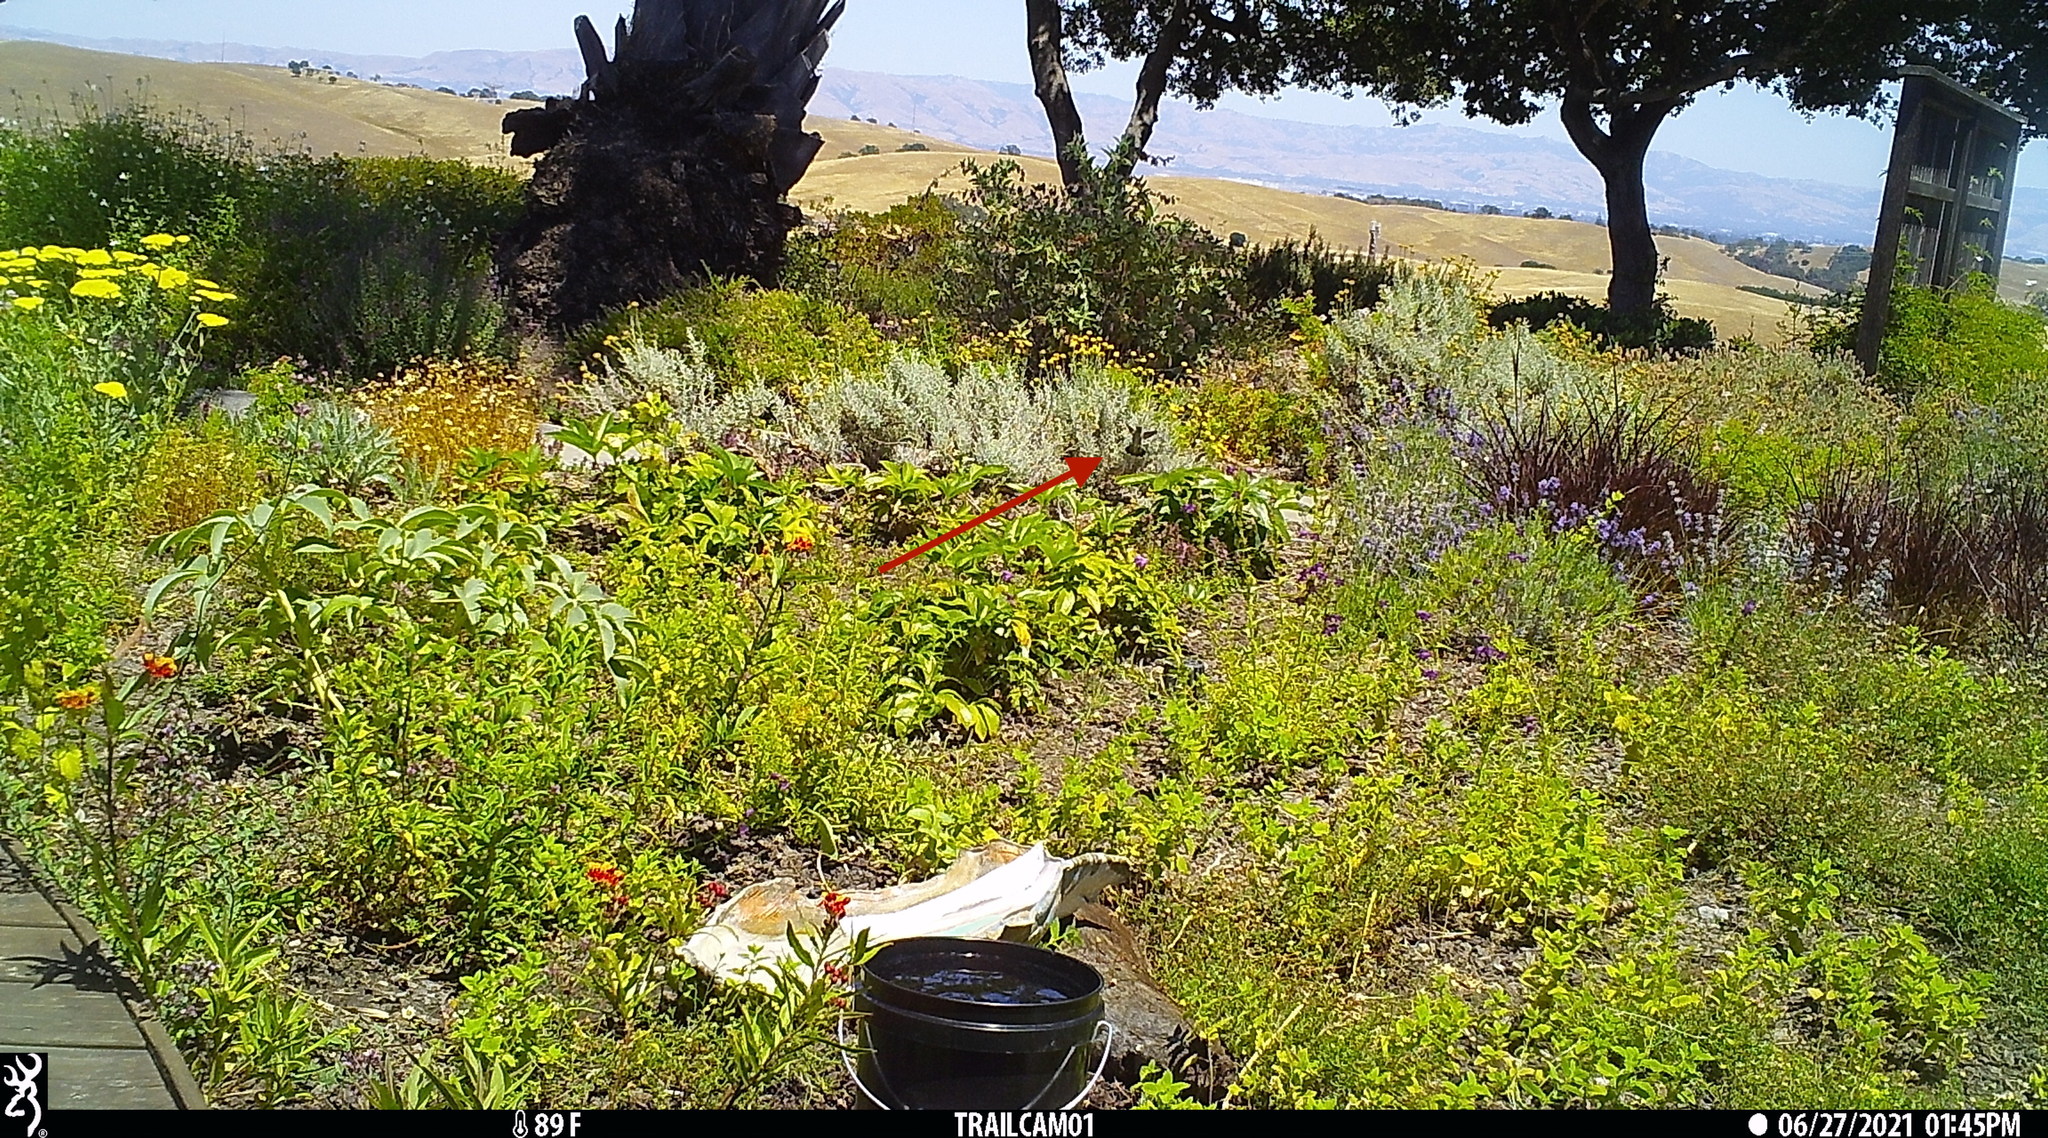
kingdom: Animalia
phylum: Chordata
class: Aves
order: Apodiformes
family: Trochilidae
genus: Calypte
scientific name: Calypte anna
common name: Anna's hummingbird
